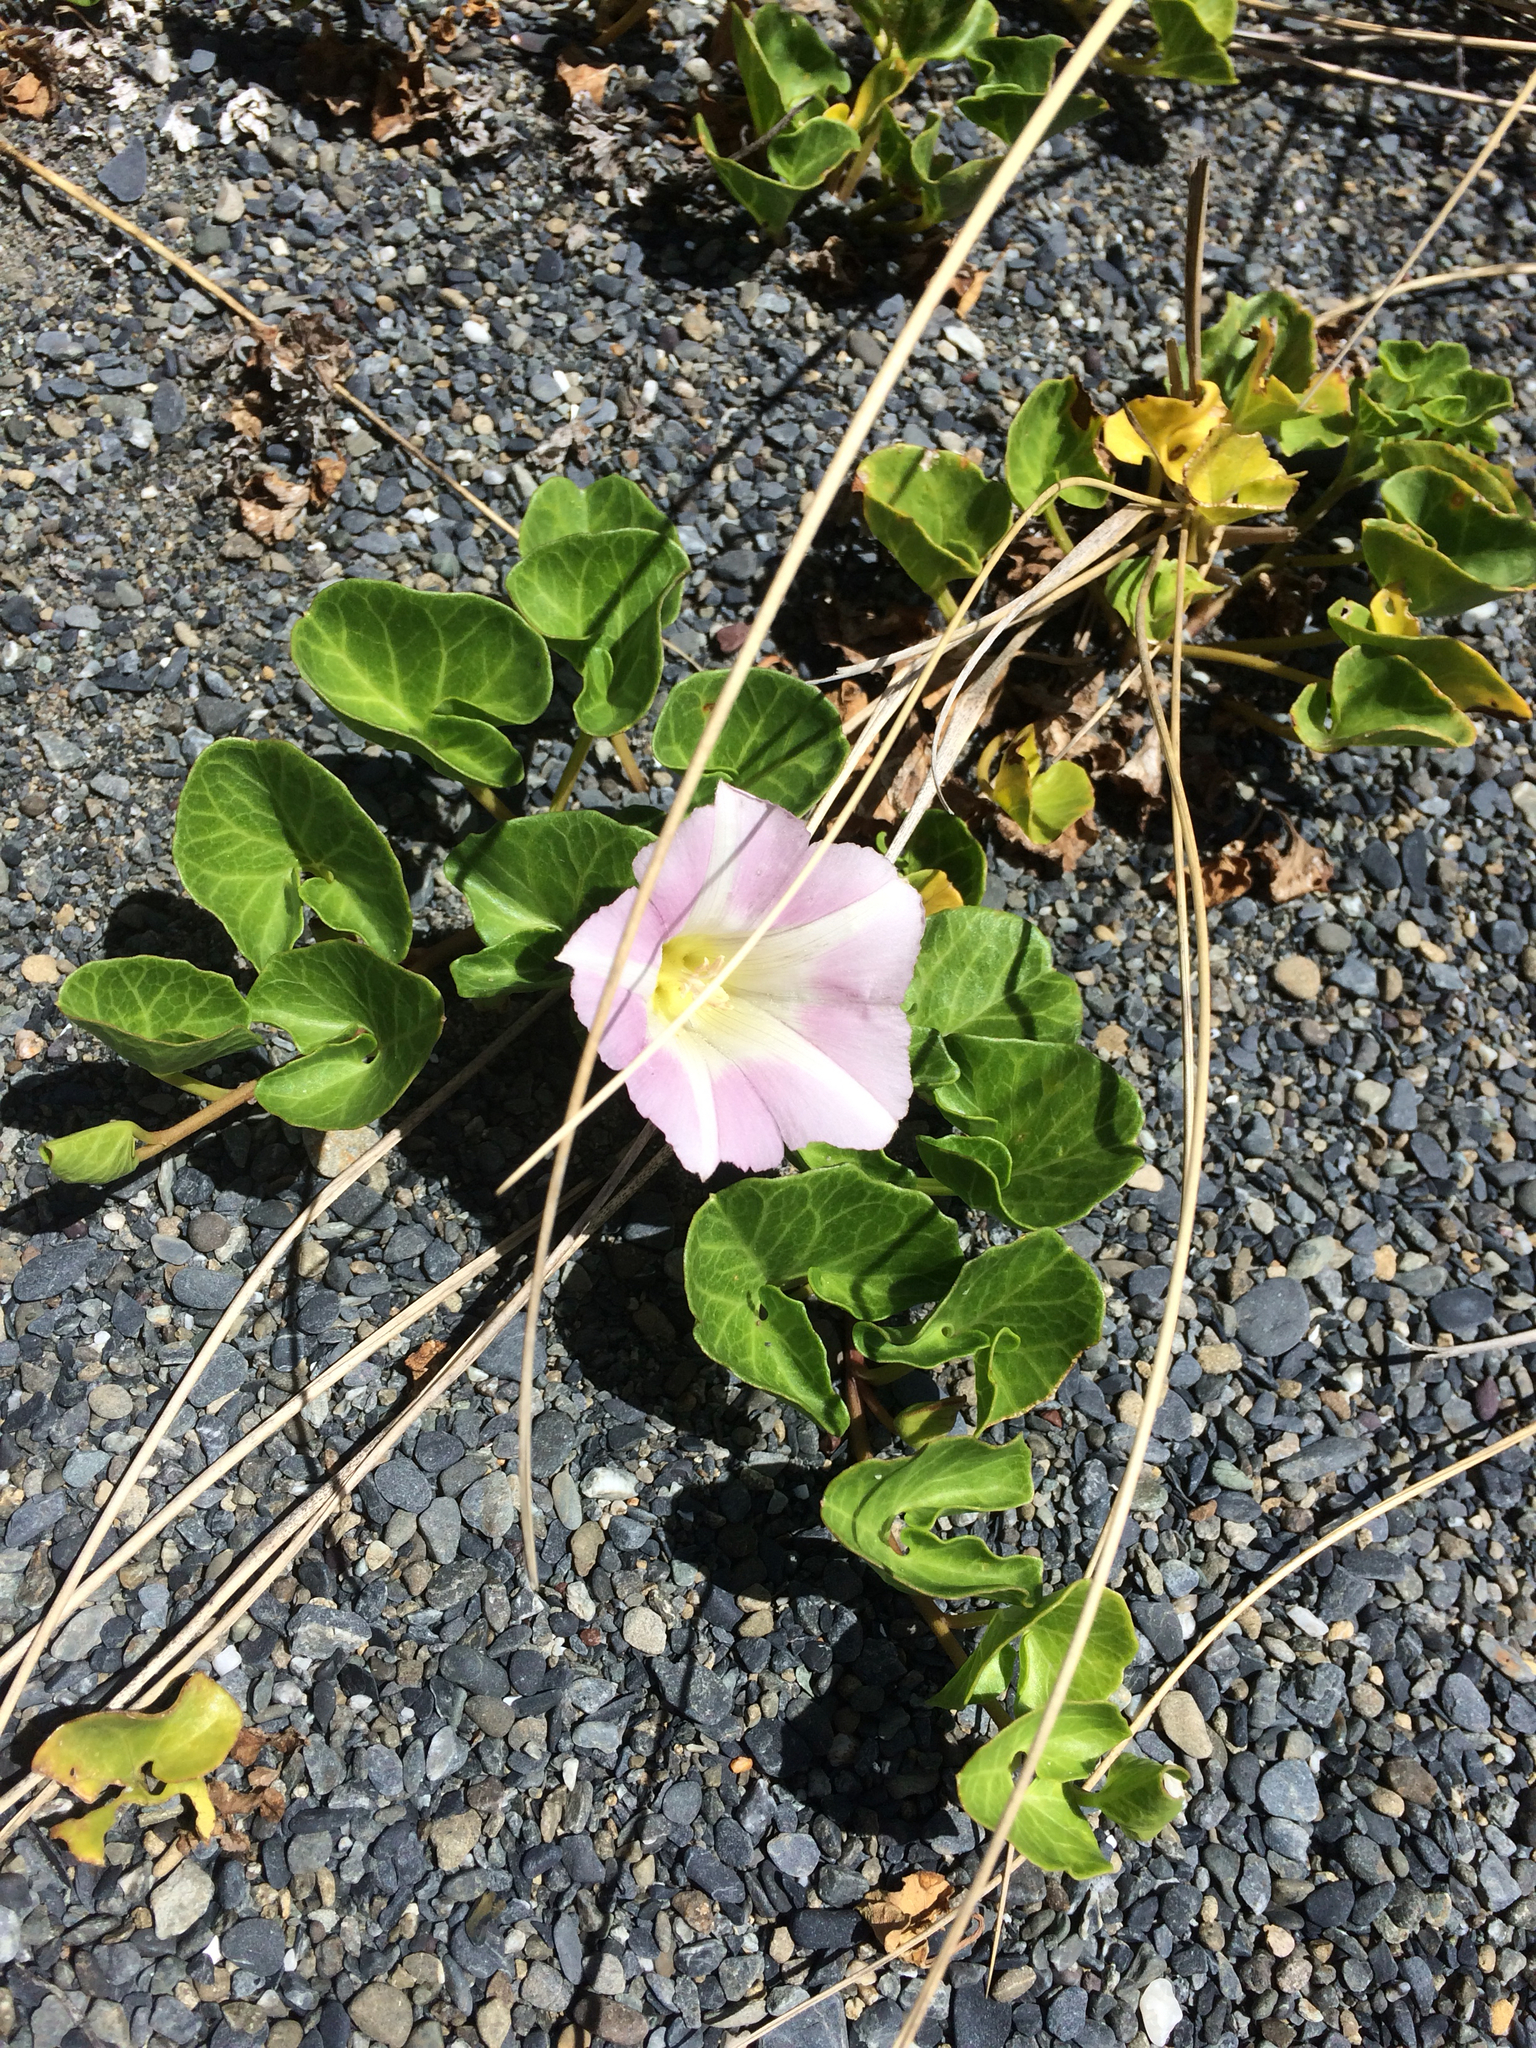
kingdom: Plantae
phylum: Tracheophyta
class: Magnoliopsida
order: Solanales
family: Convolvulaceae
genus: Calystegia
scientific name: Calystegia soldanella
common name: Sea bindweed
